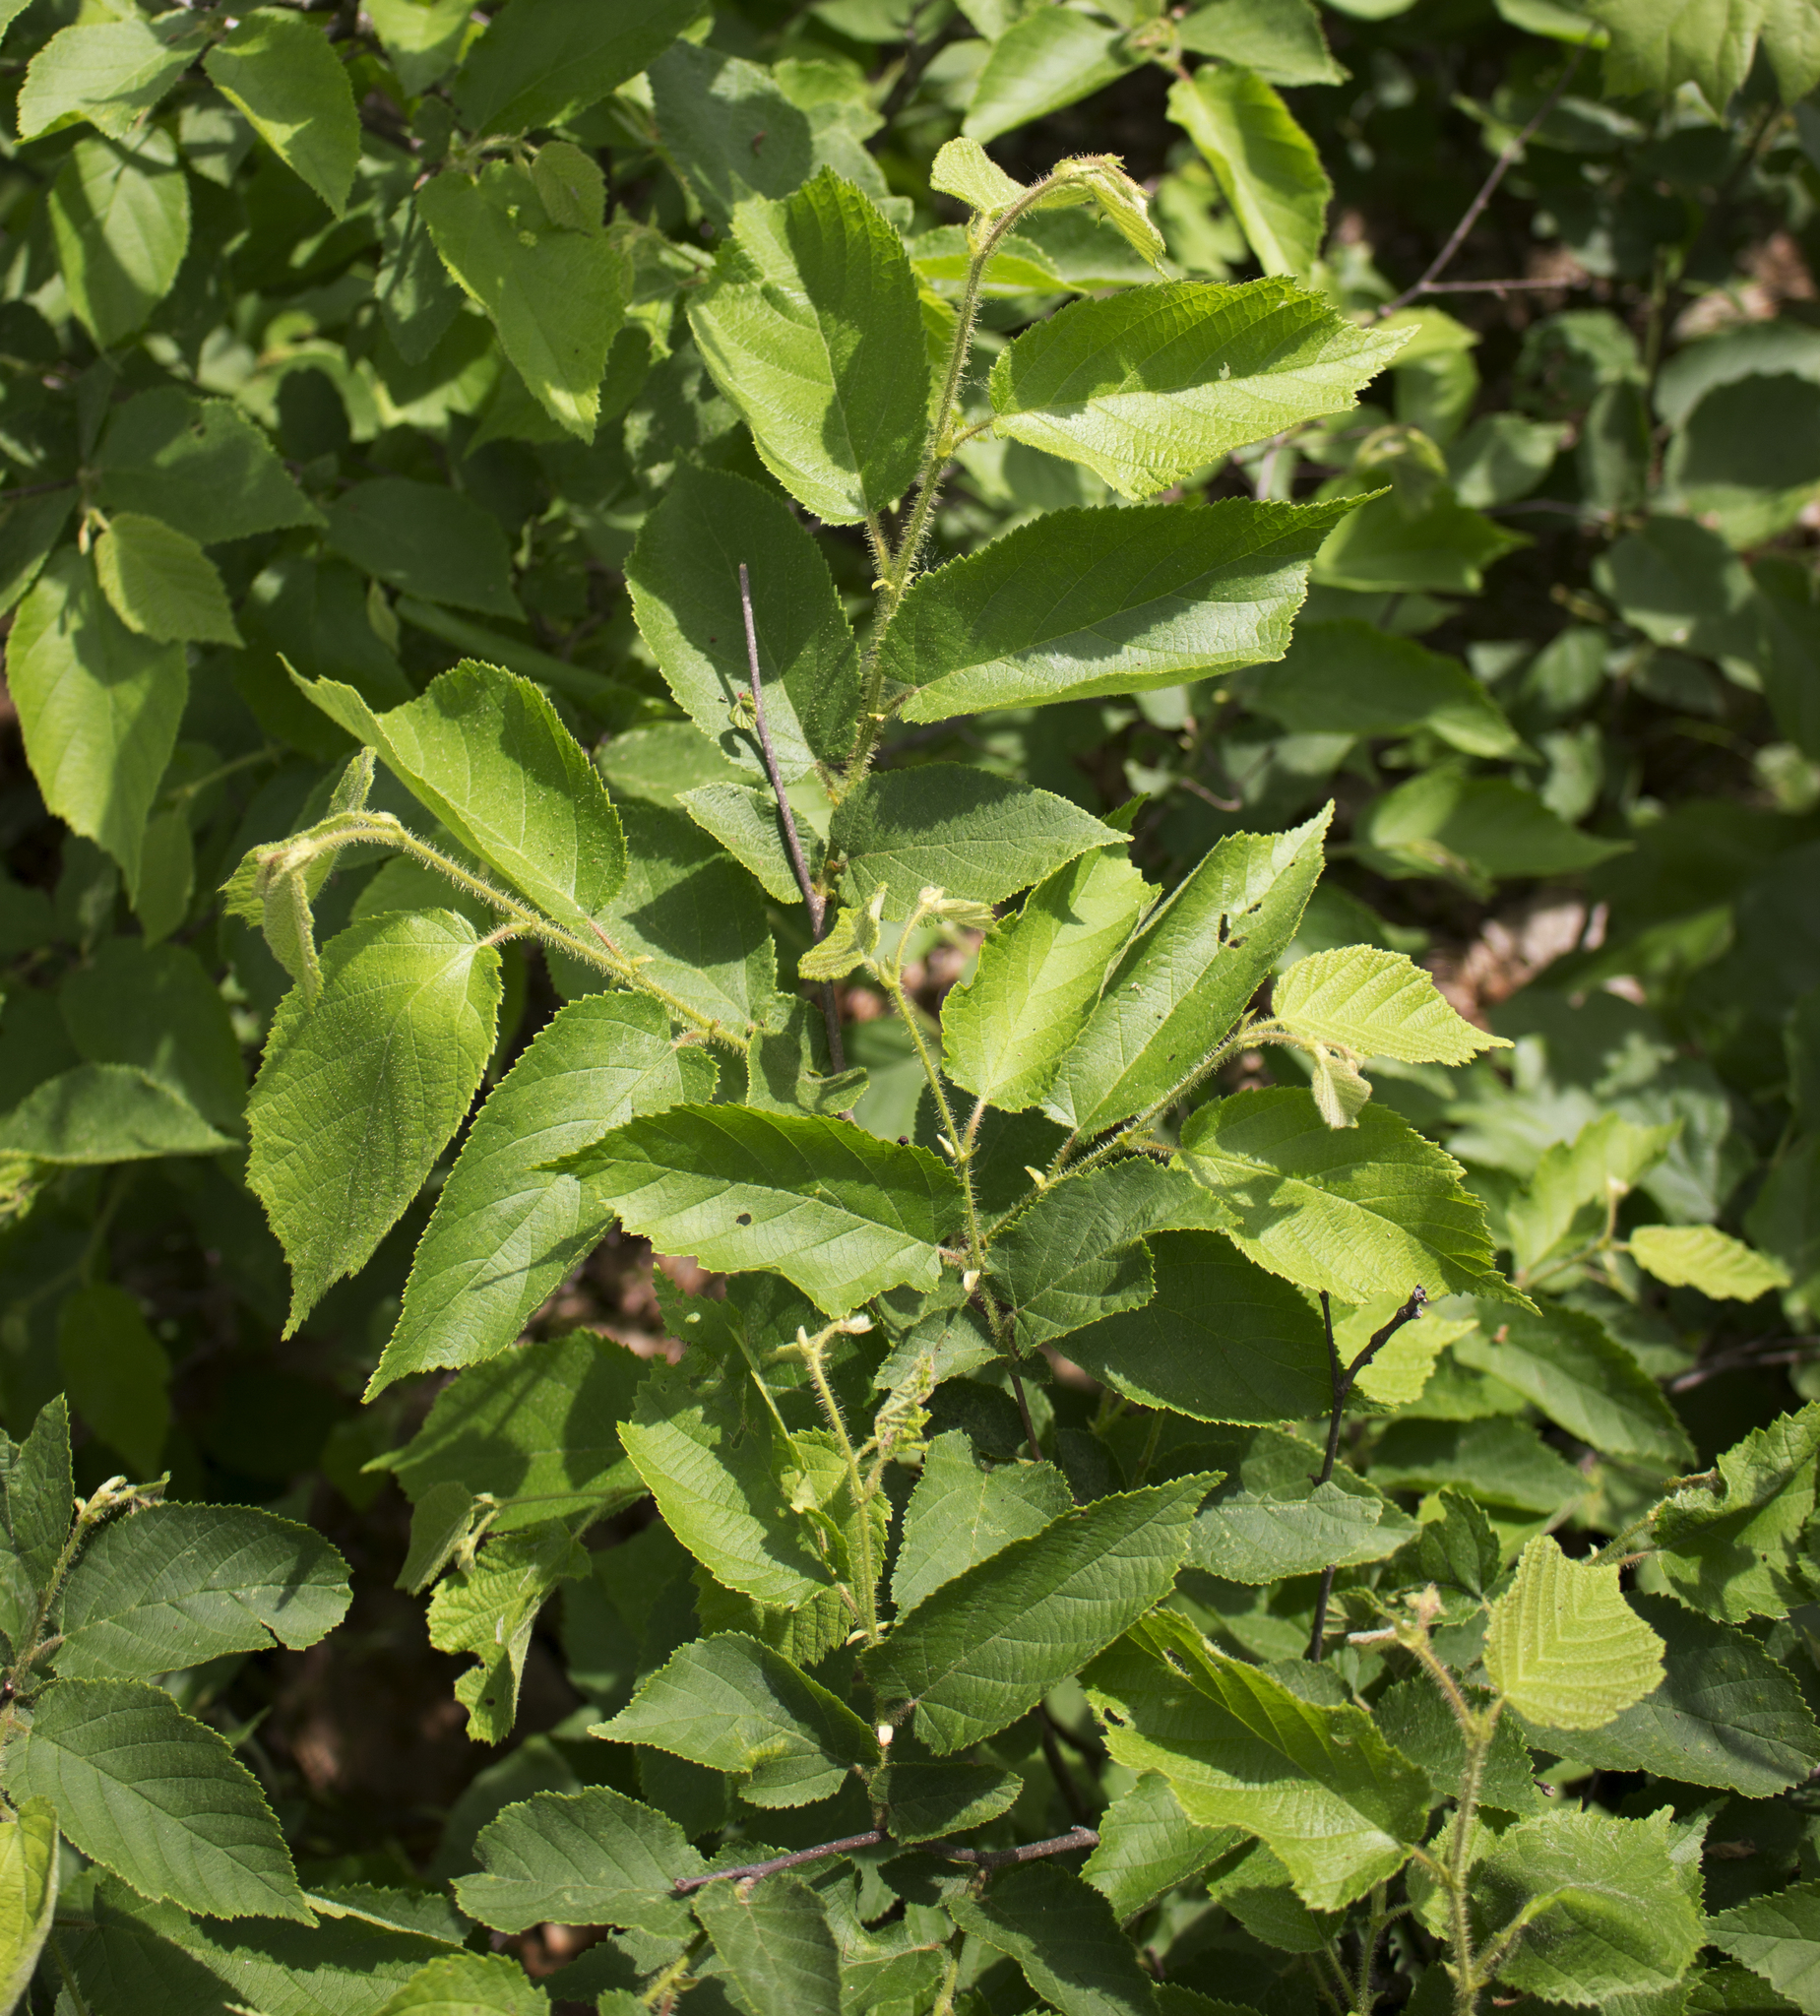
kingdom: Plantae
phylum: Tracheophyta
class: Magnoliopsida
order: Fagales
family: Betulaceae
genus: Corylus
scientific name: Corylus americana
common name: American hazel
